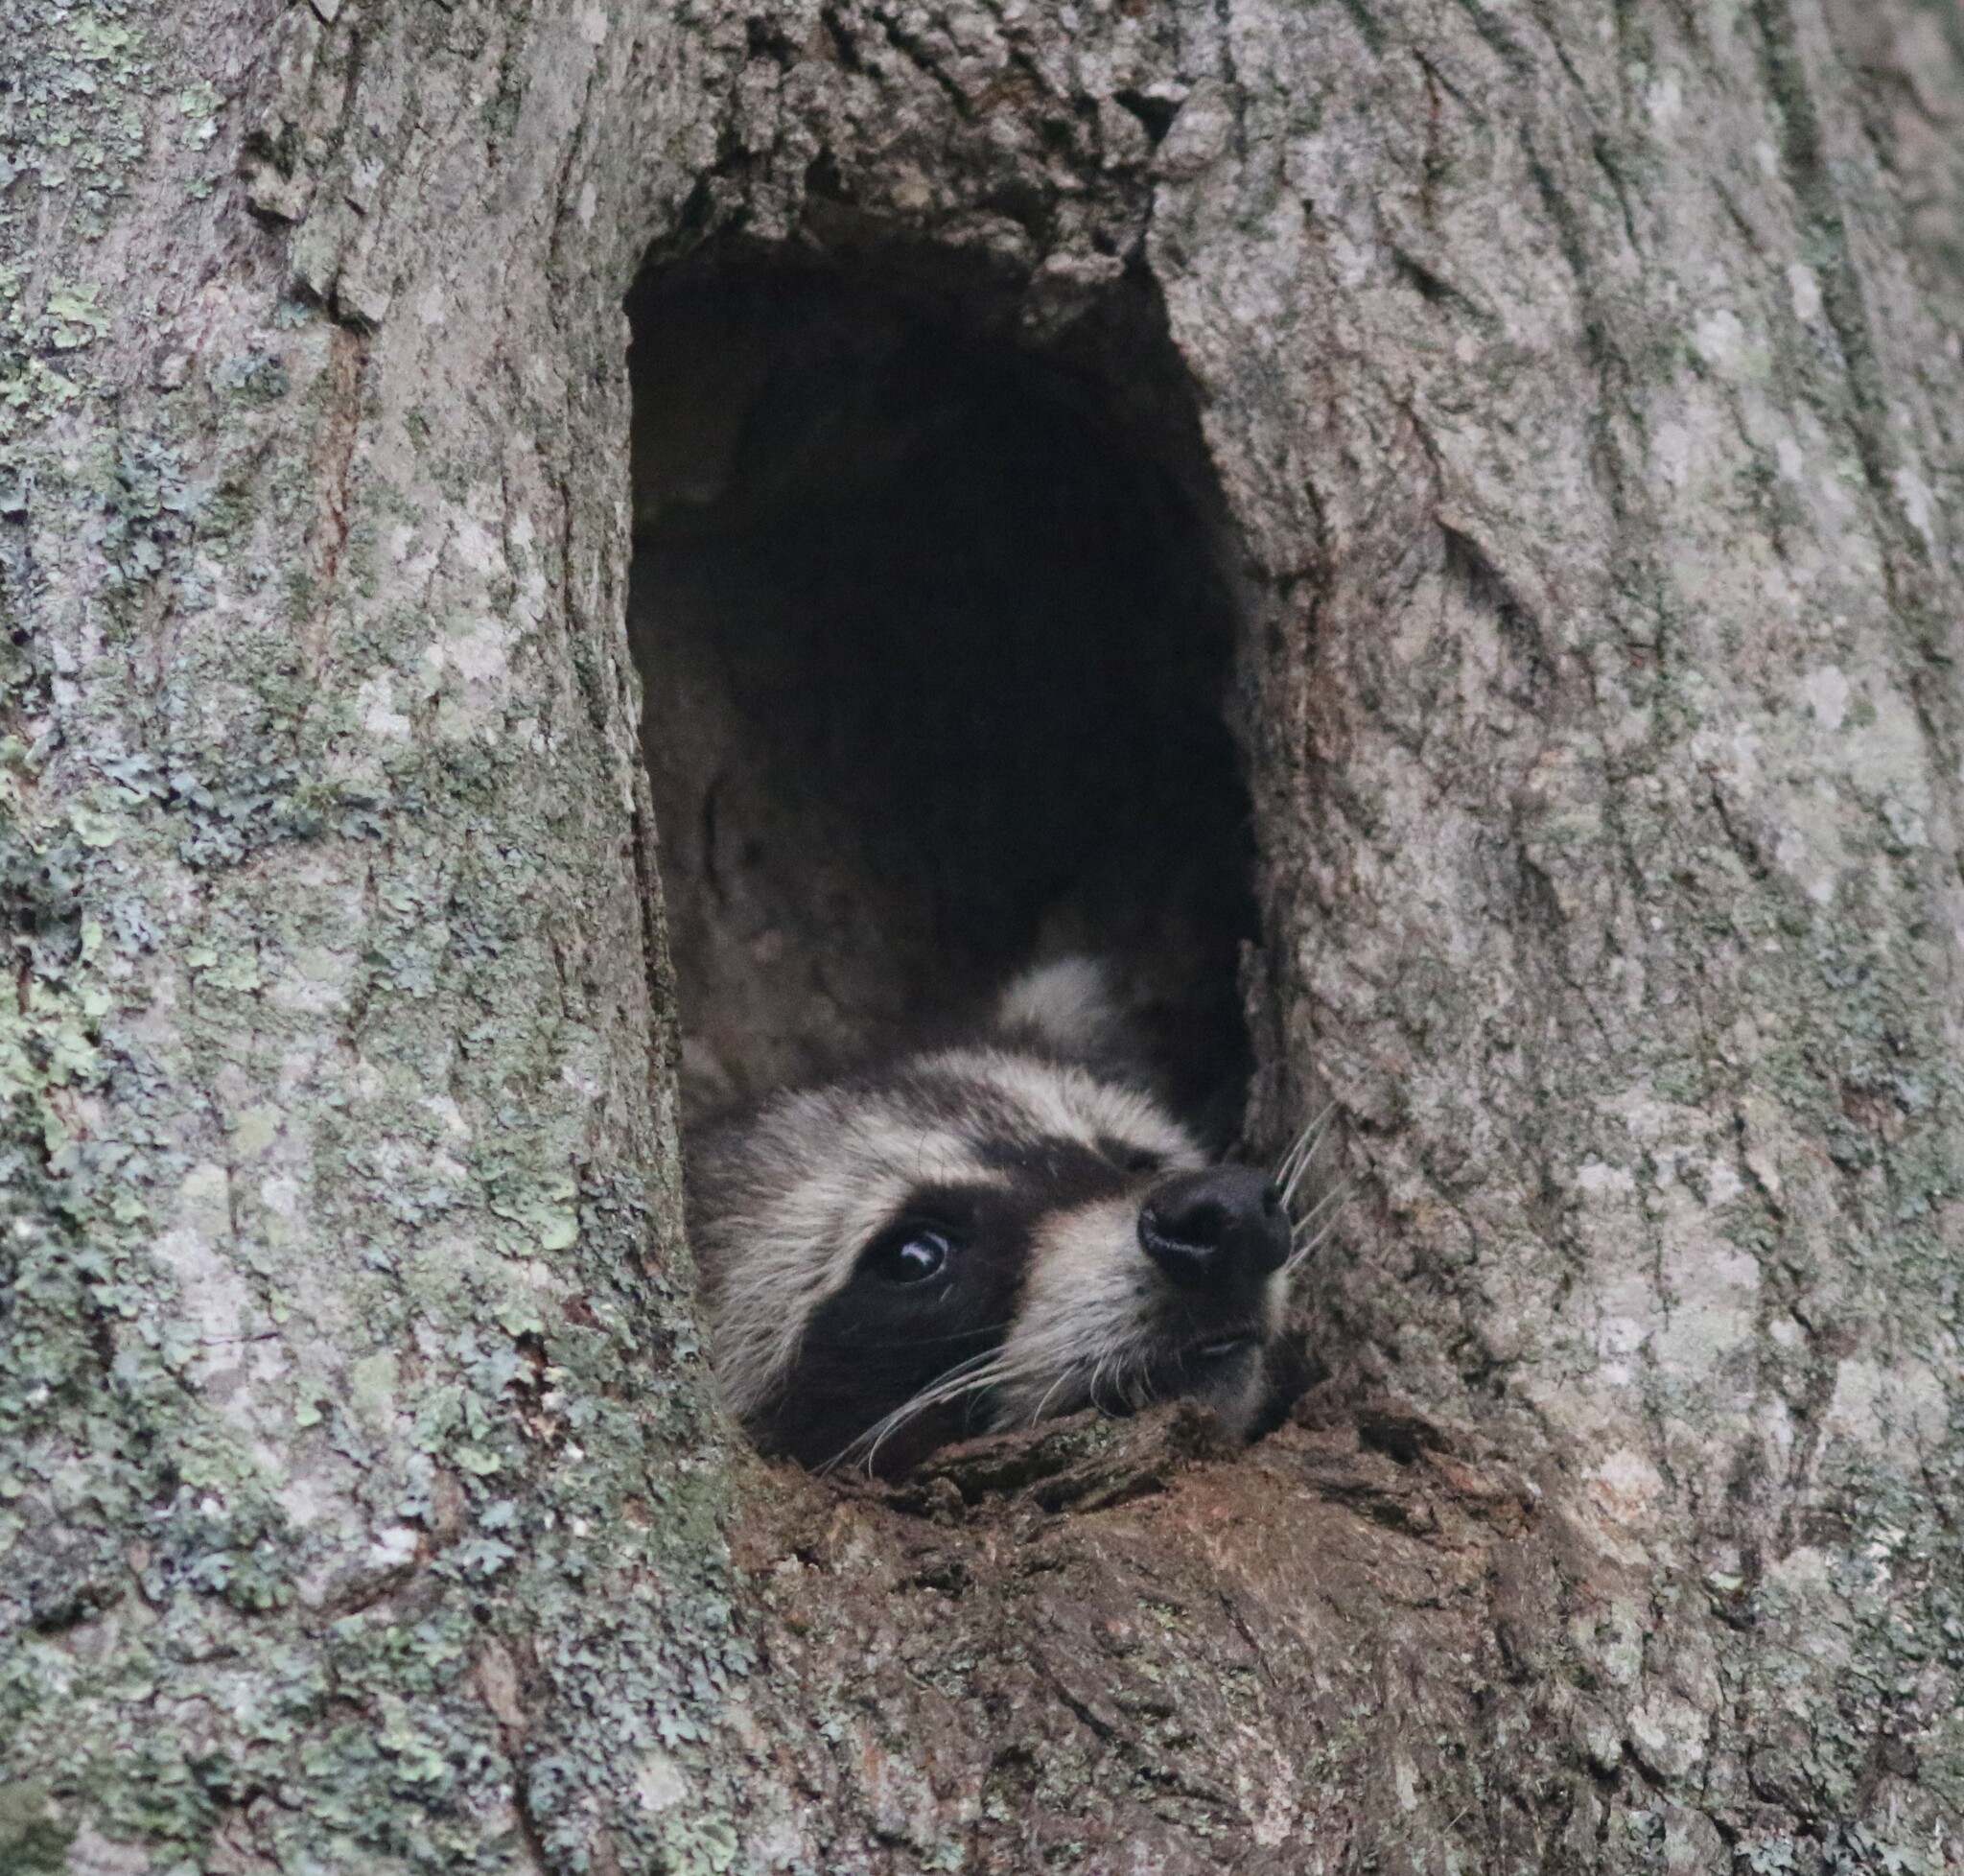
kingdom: Animalia
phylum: Chordata
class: Mammalia
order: Carnivora
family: Procyonidae
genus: Procyon
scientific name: Procyon lotor
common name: Raccoon
